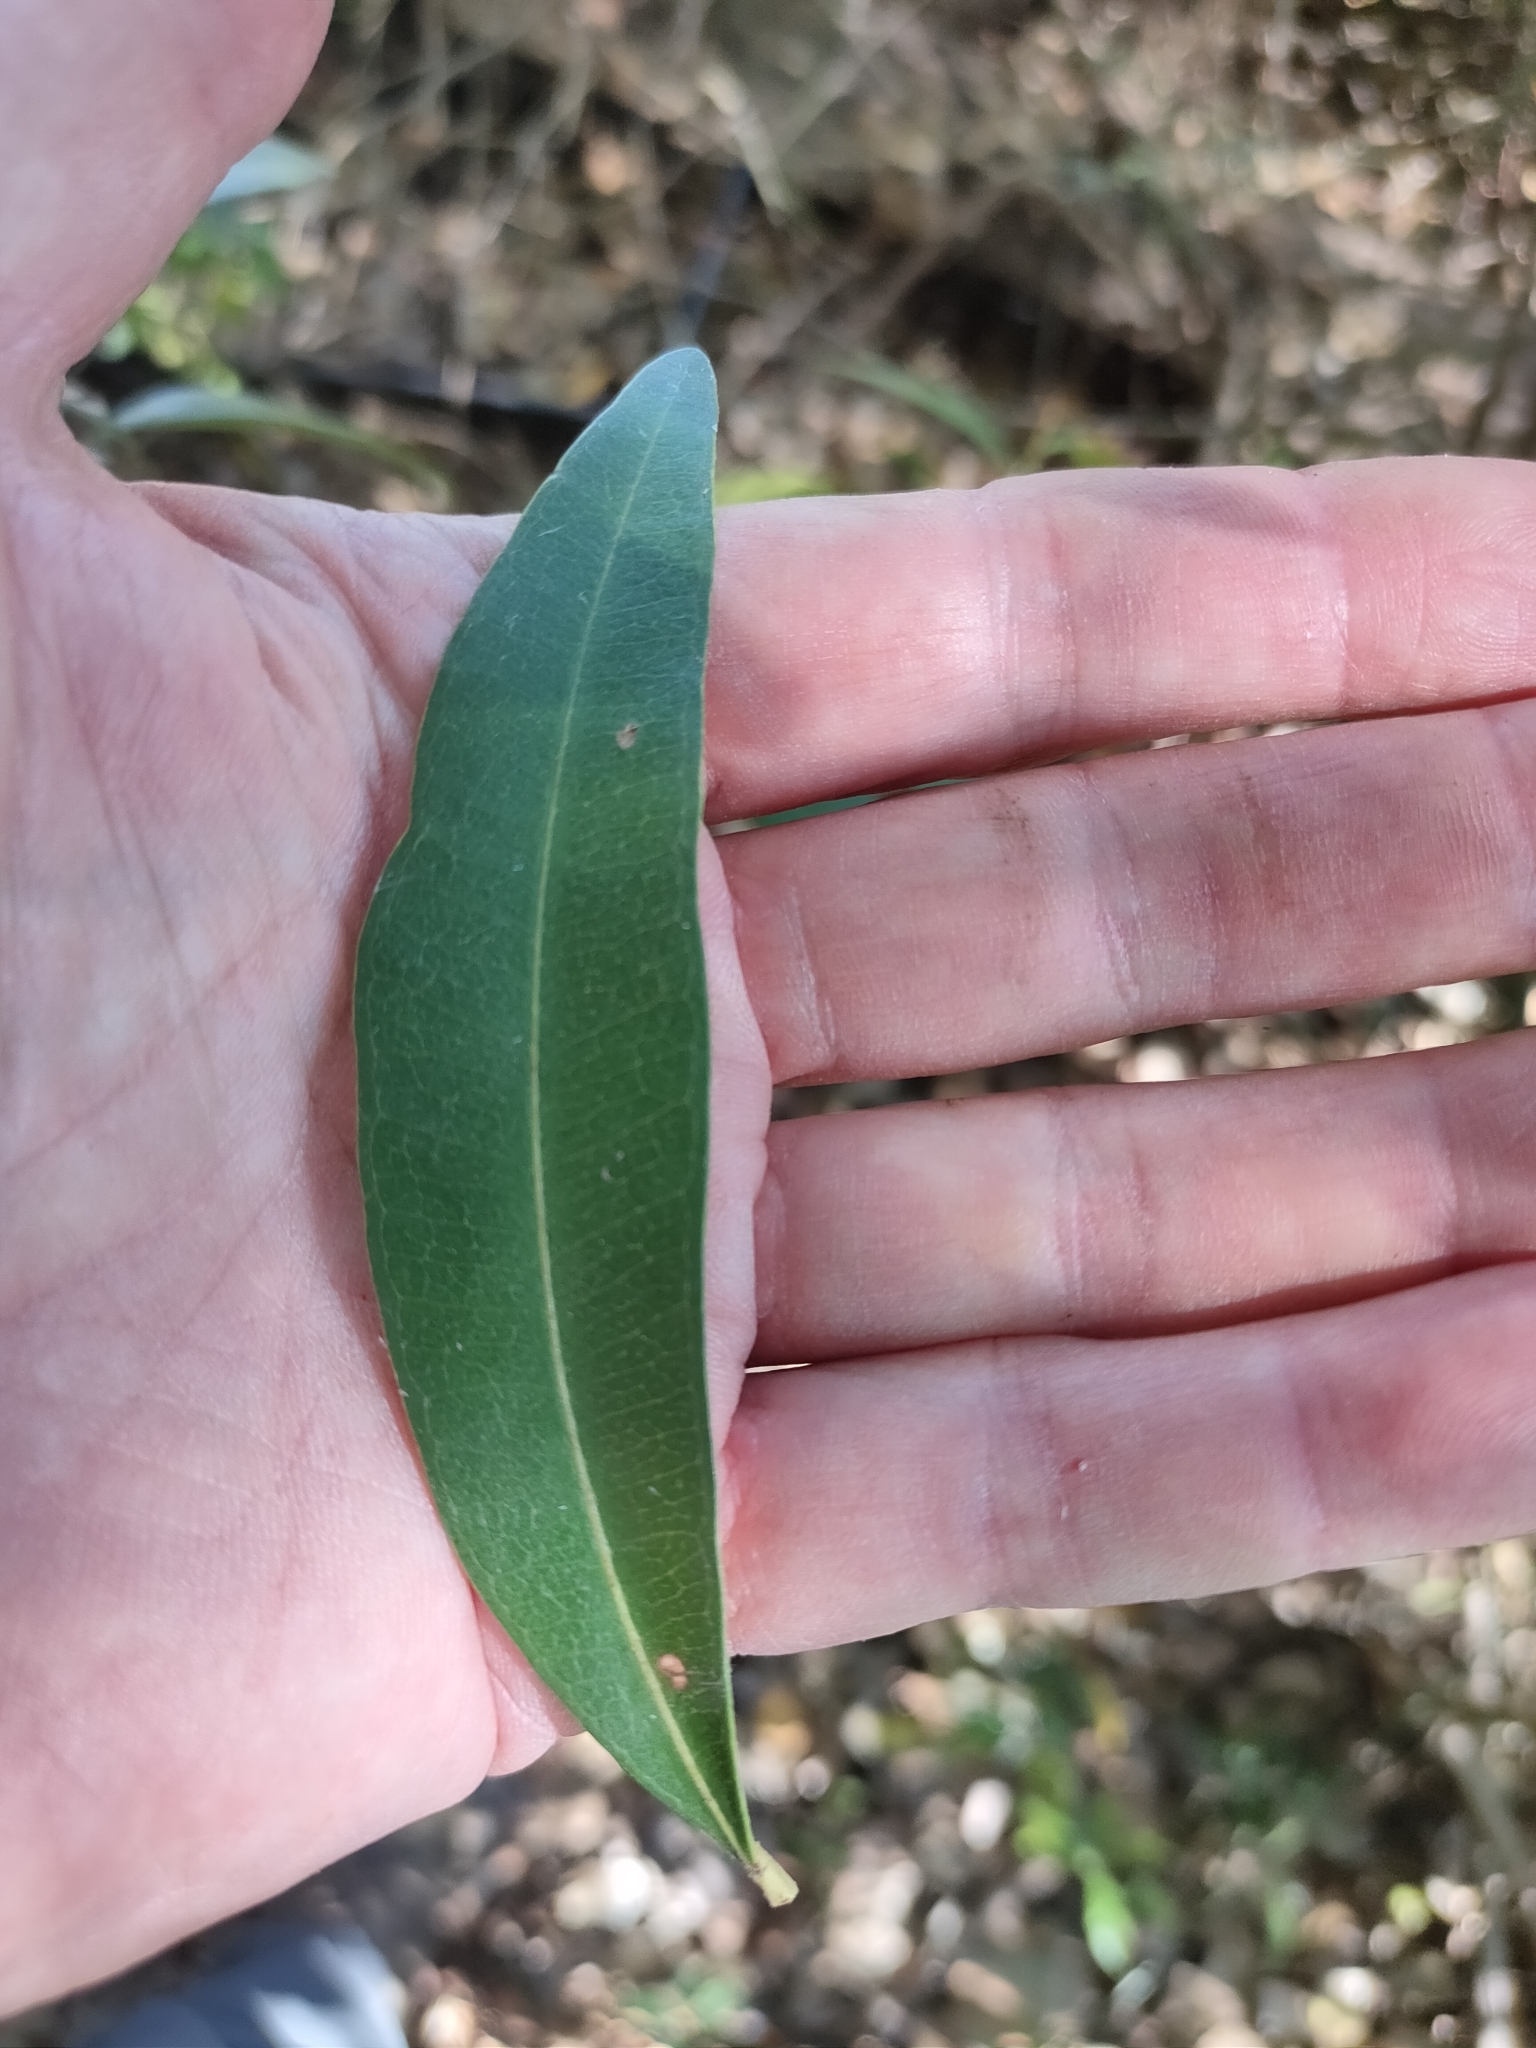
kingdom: Plantae
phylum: Tracheophyta
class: Magnoliopsida
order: Sapindales
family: Simaroubaceae
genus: Samadera
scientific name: Samadera bidwillii
